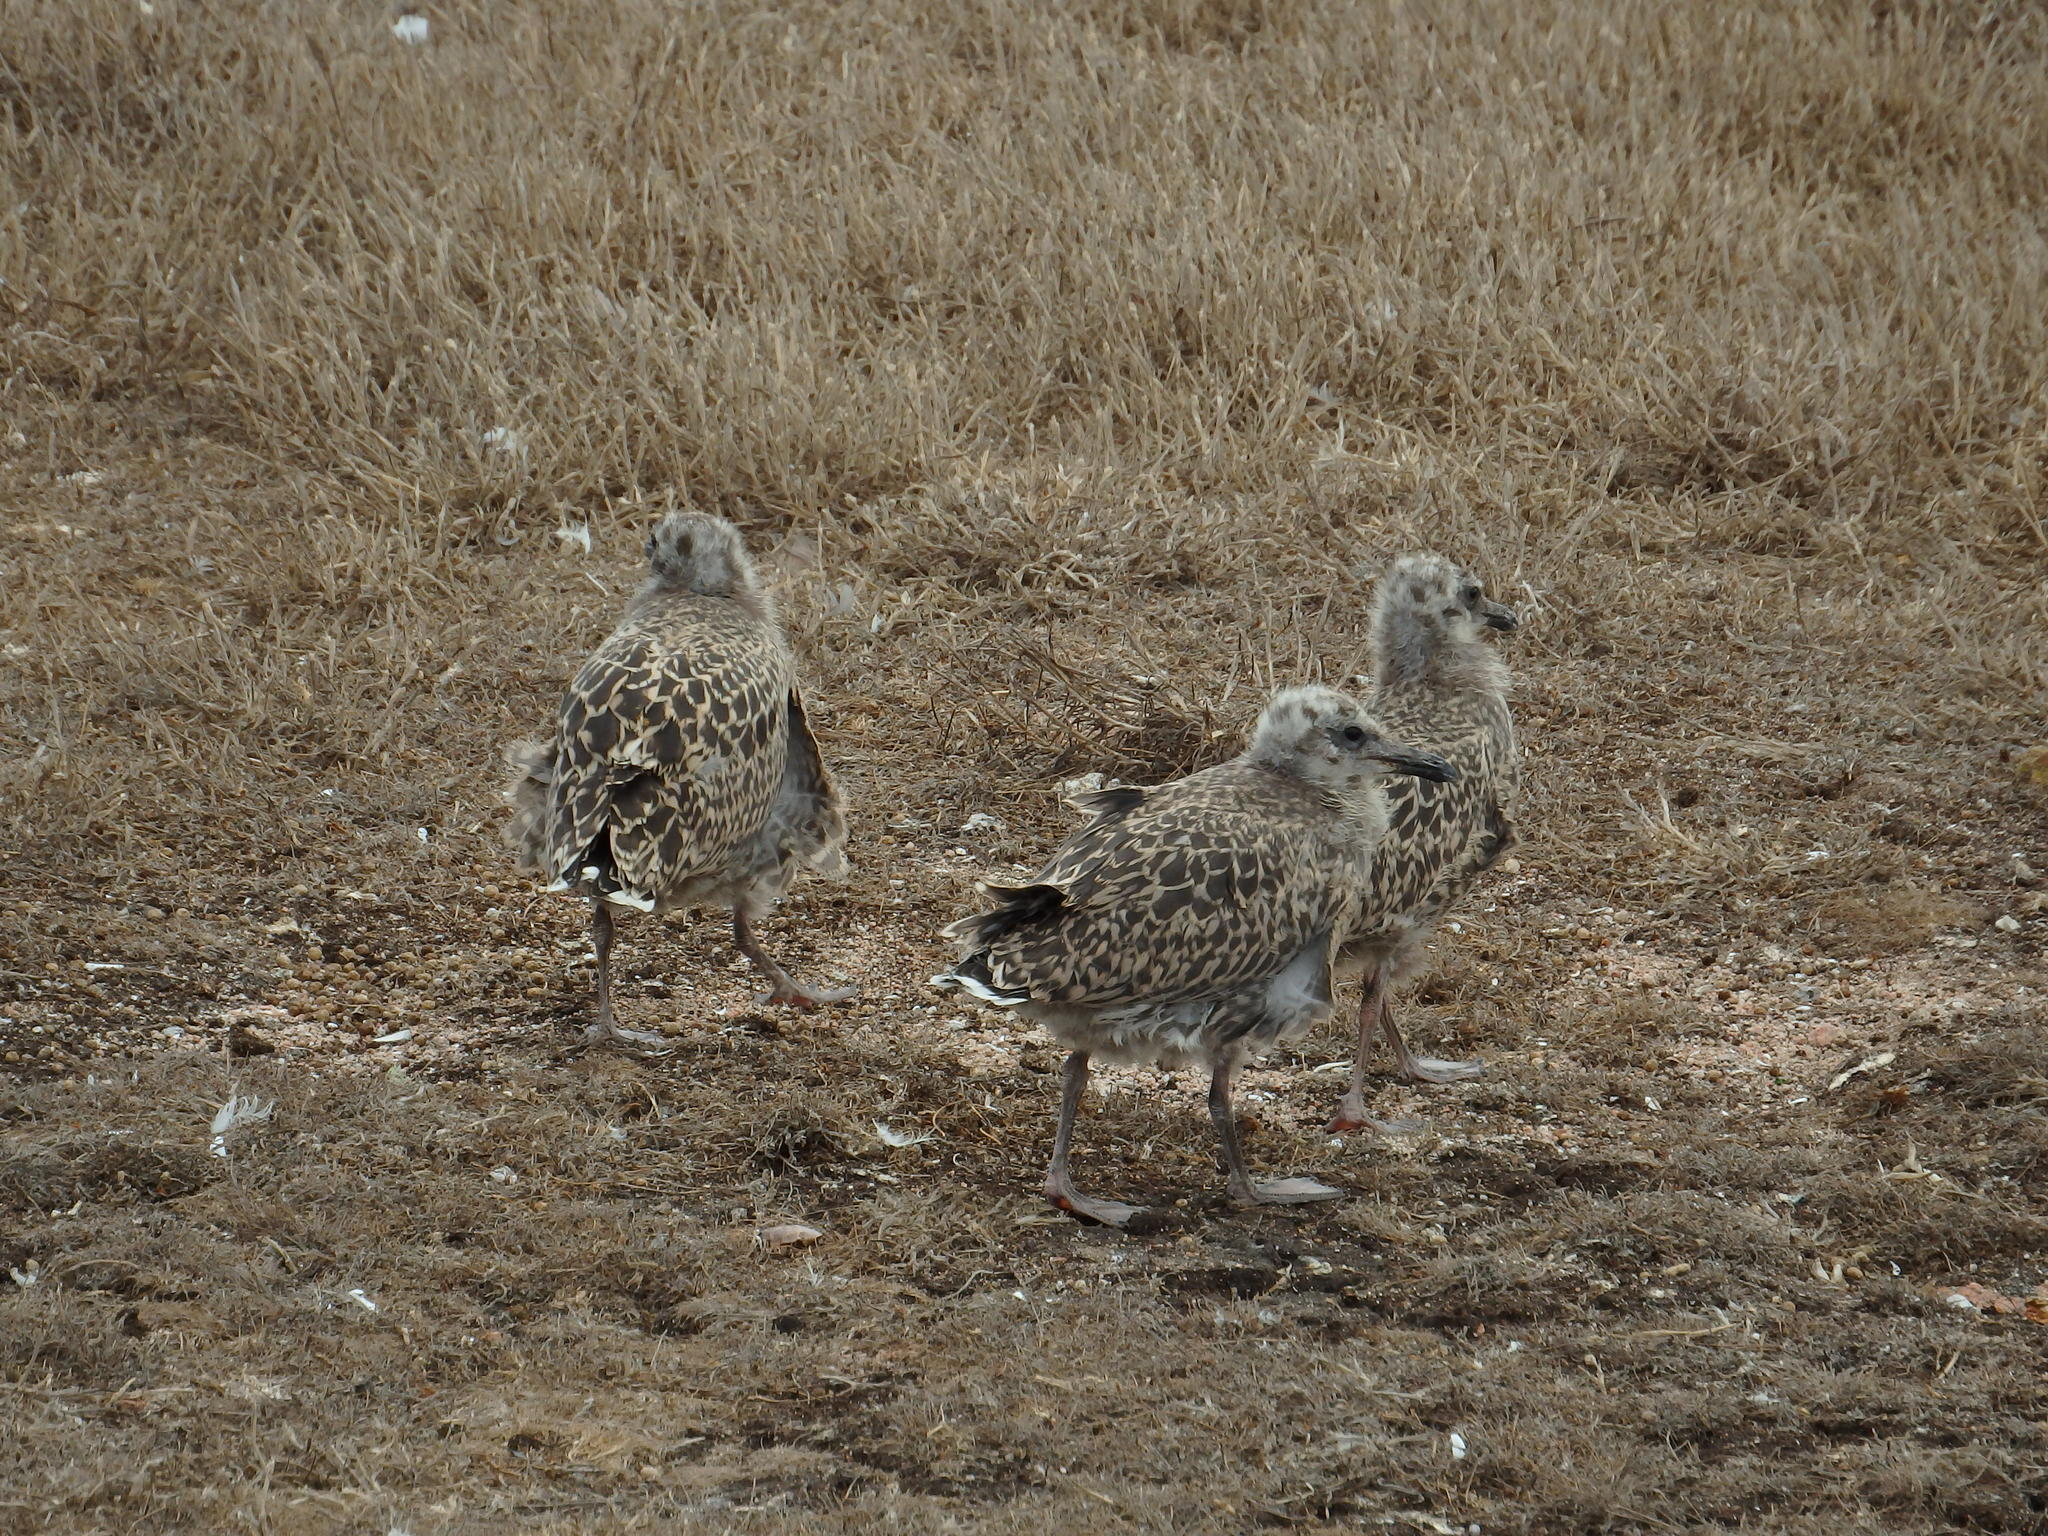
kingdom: Animalia
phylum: Chordata
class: Aves
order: Charadriiformes
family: Laridae
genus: Larus
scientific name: Larus michahellis
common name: Yellow-legged gull
